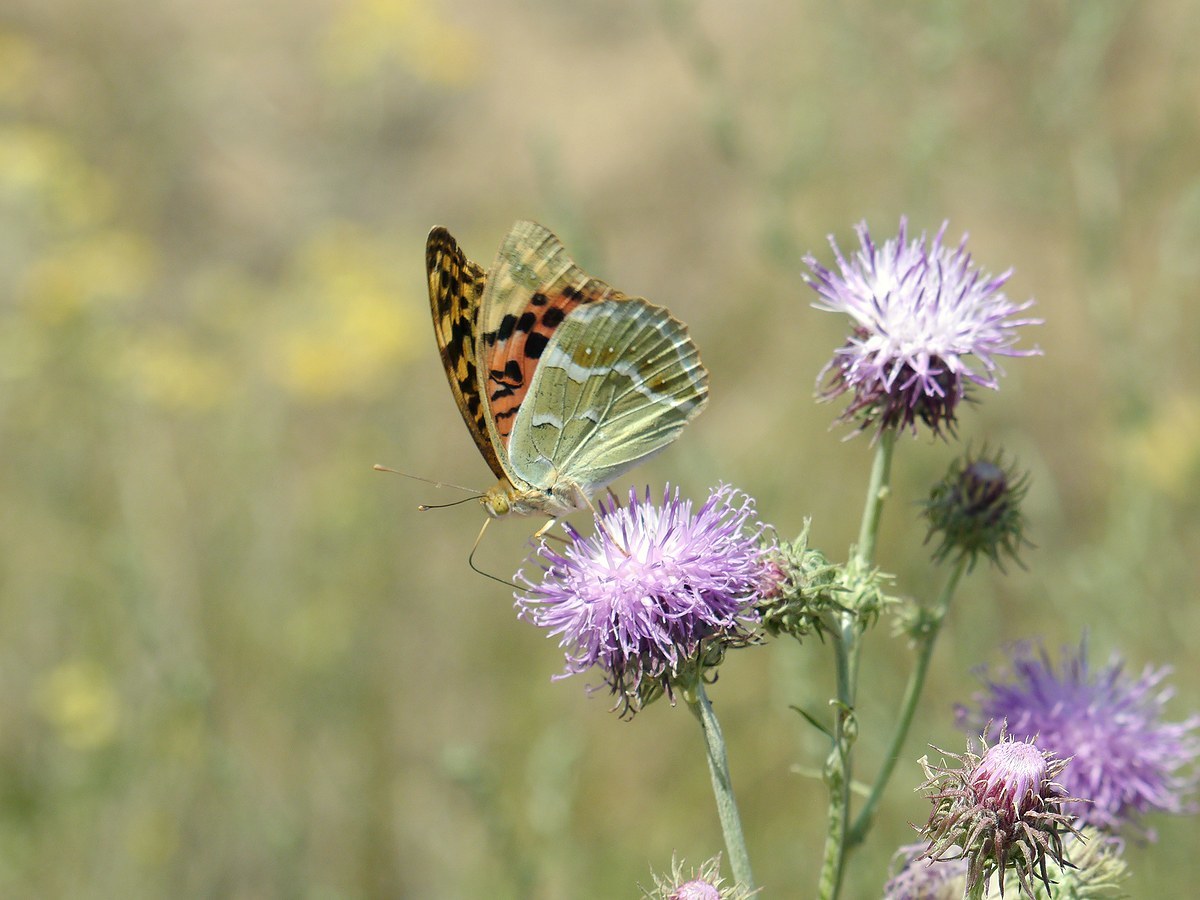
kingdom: Animalia
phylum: Arthropoda
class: Insecta
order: Lepidoptera
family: Nymphalidae
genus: Damora
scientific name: Damora pandora
